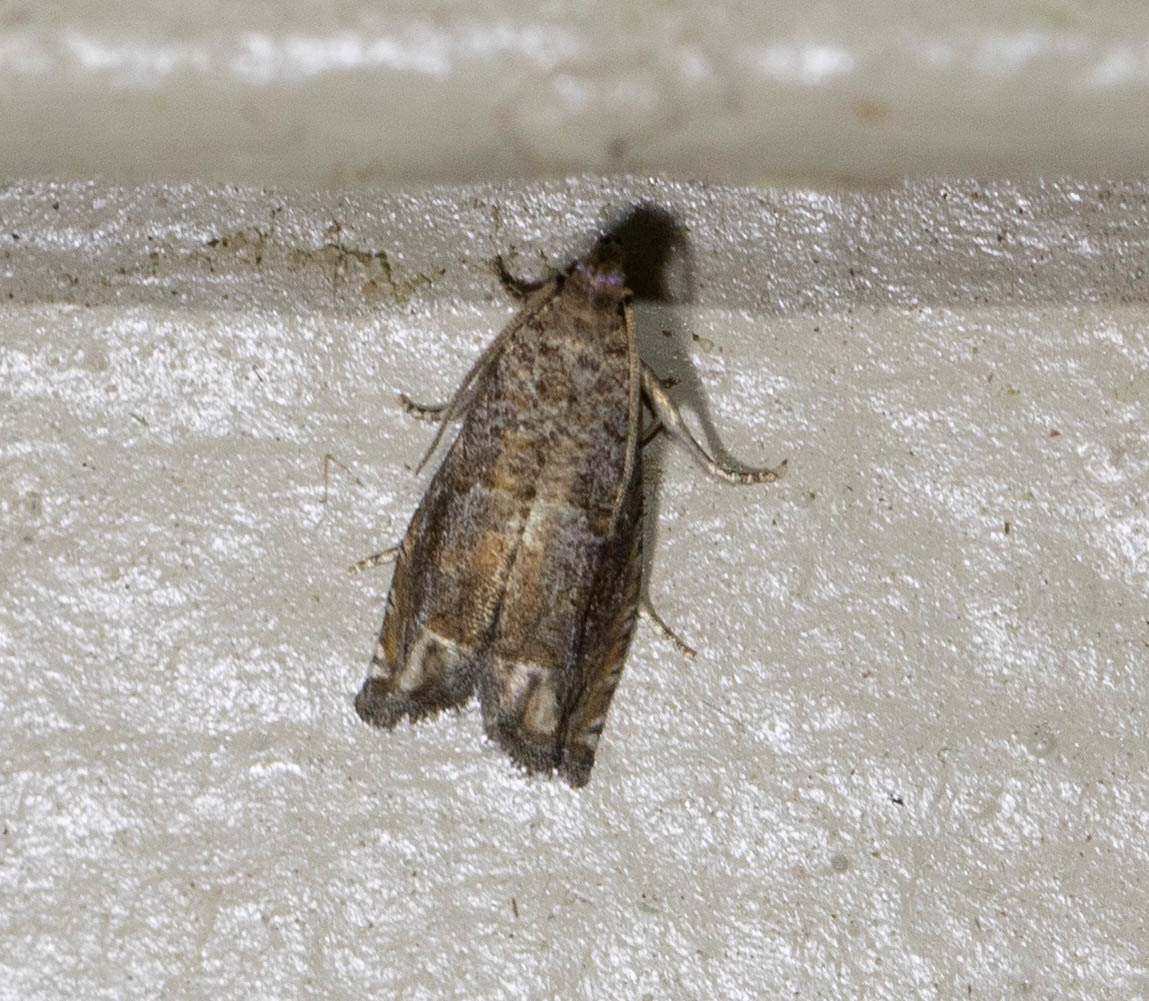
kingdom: Animalia
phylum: Arthropoda
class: Insecta
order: Lepidoptera
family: Tortricidae
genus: Epiblema
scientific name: Epiblema abruptana
